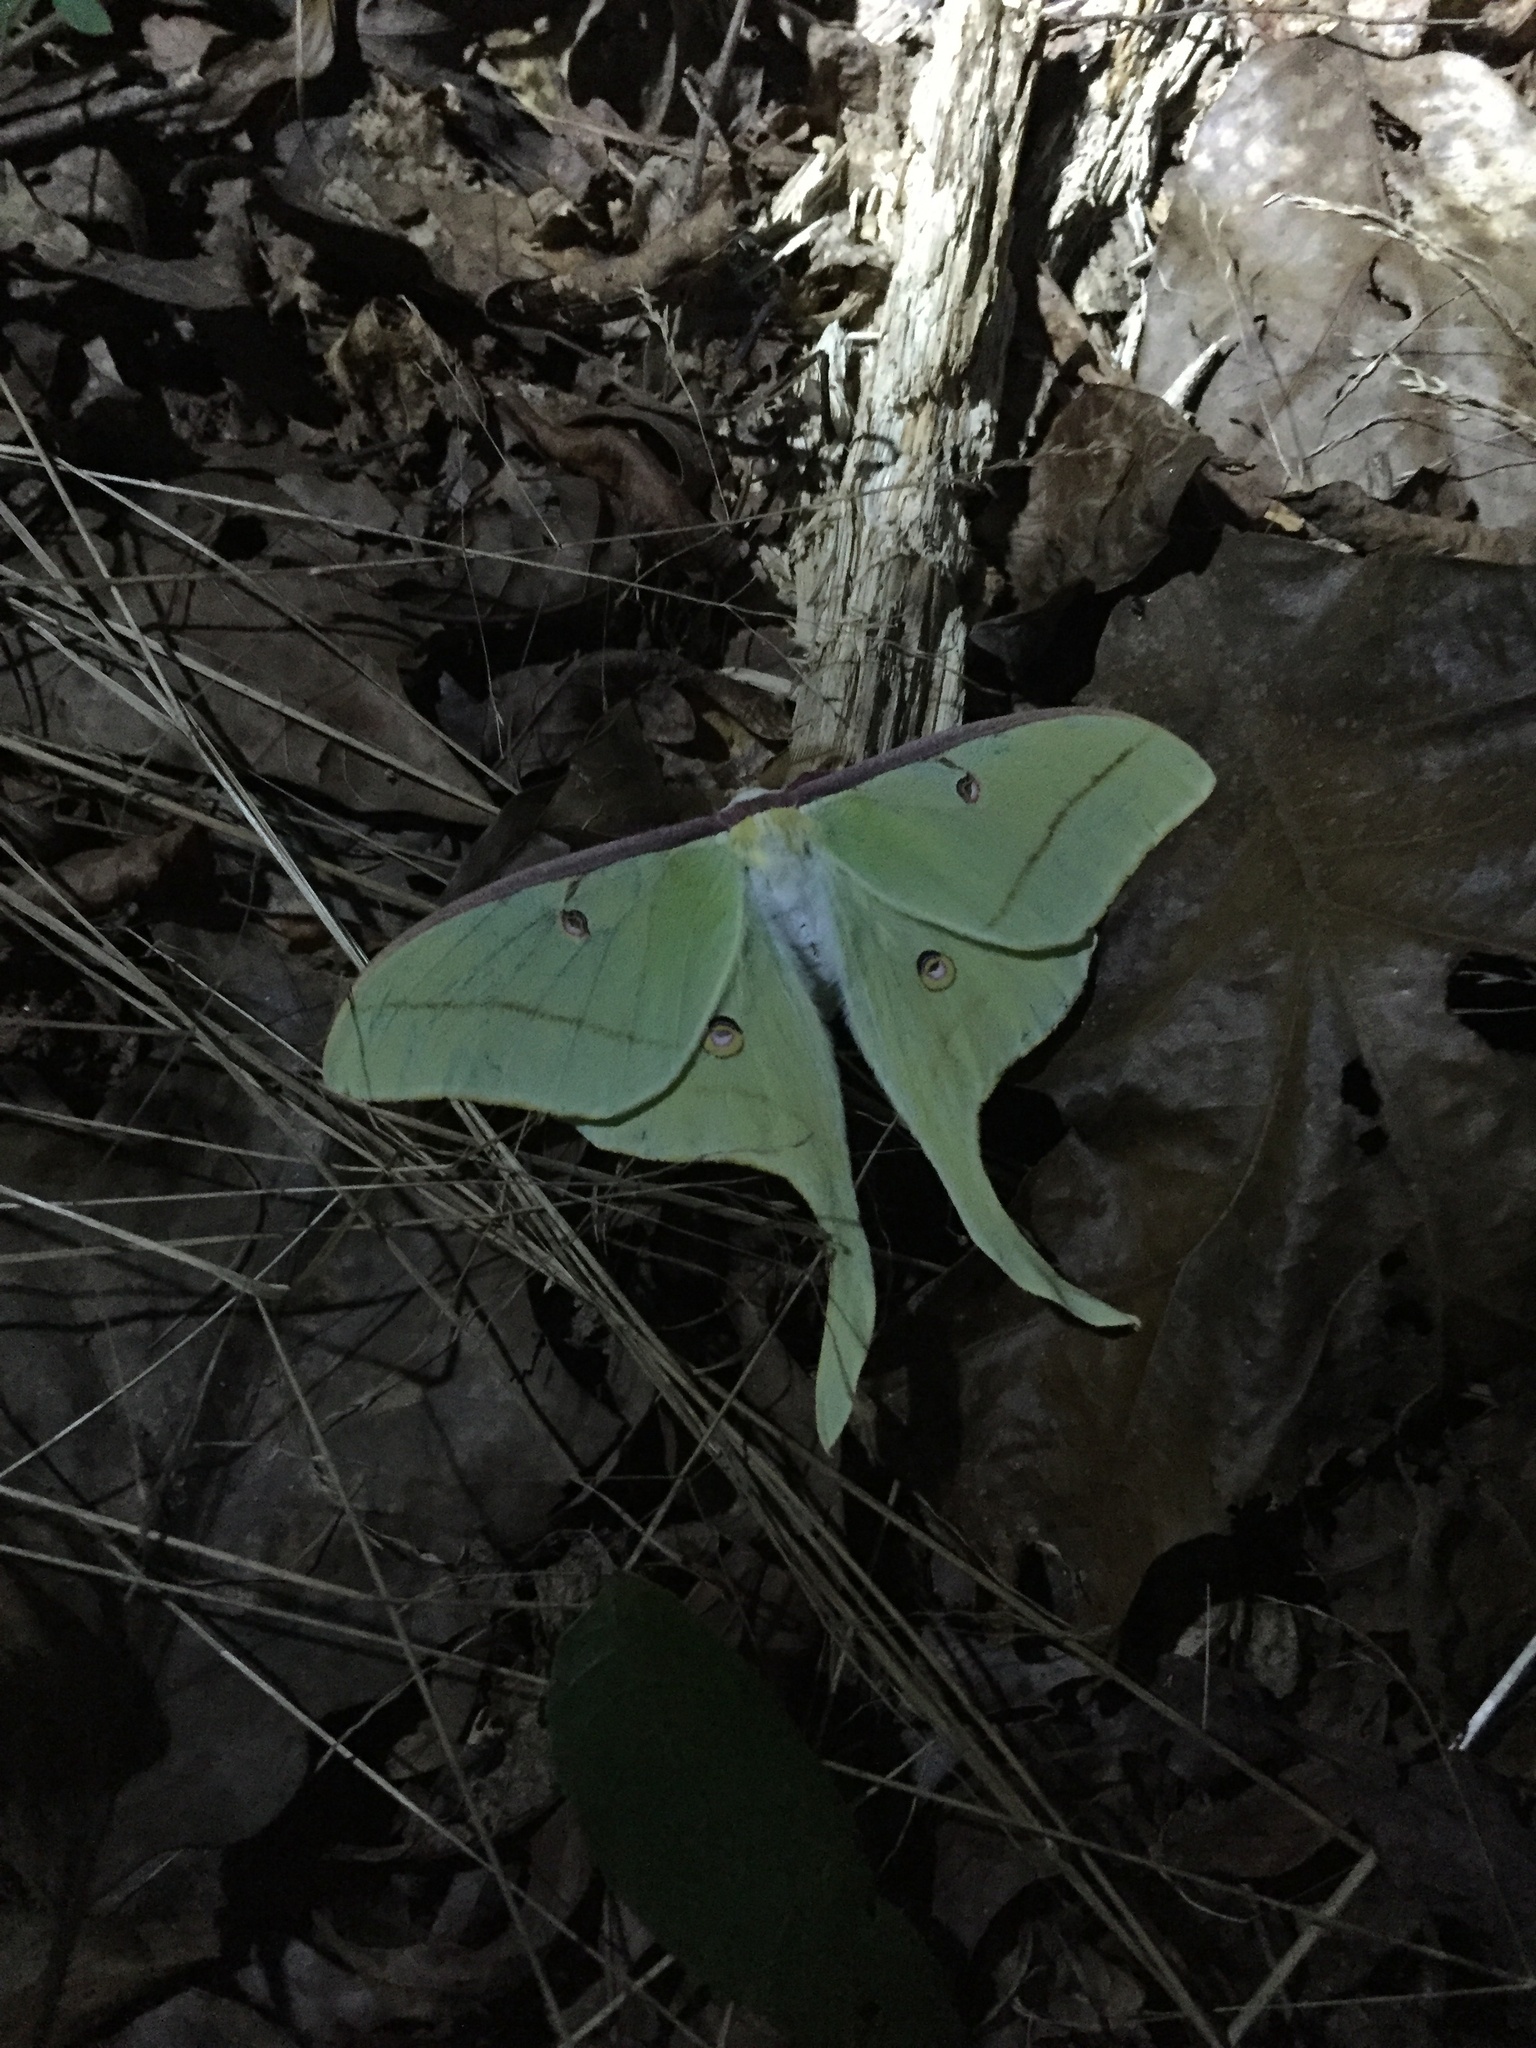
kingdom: Animalia
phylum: Arthropoda
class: Insecta
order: Lepidoptera
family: Saturniidae
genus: Actias
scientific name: Actias luna
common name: Luna moth
